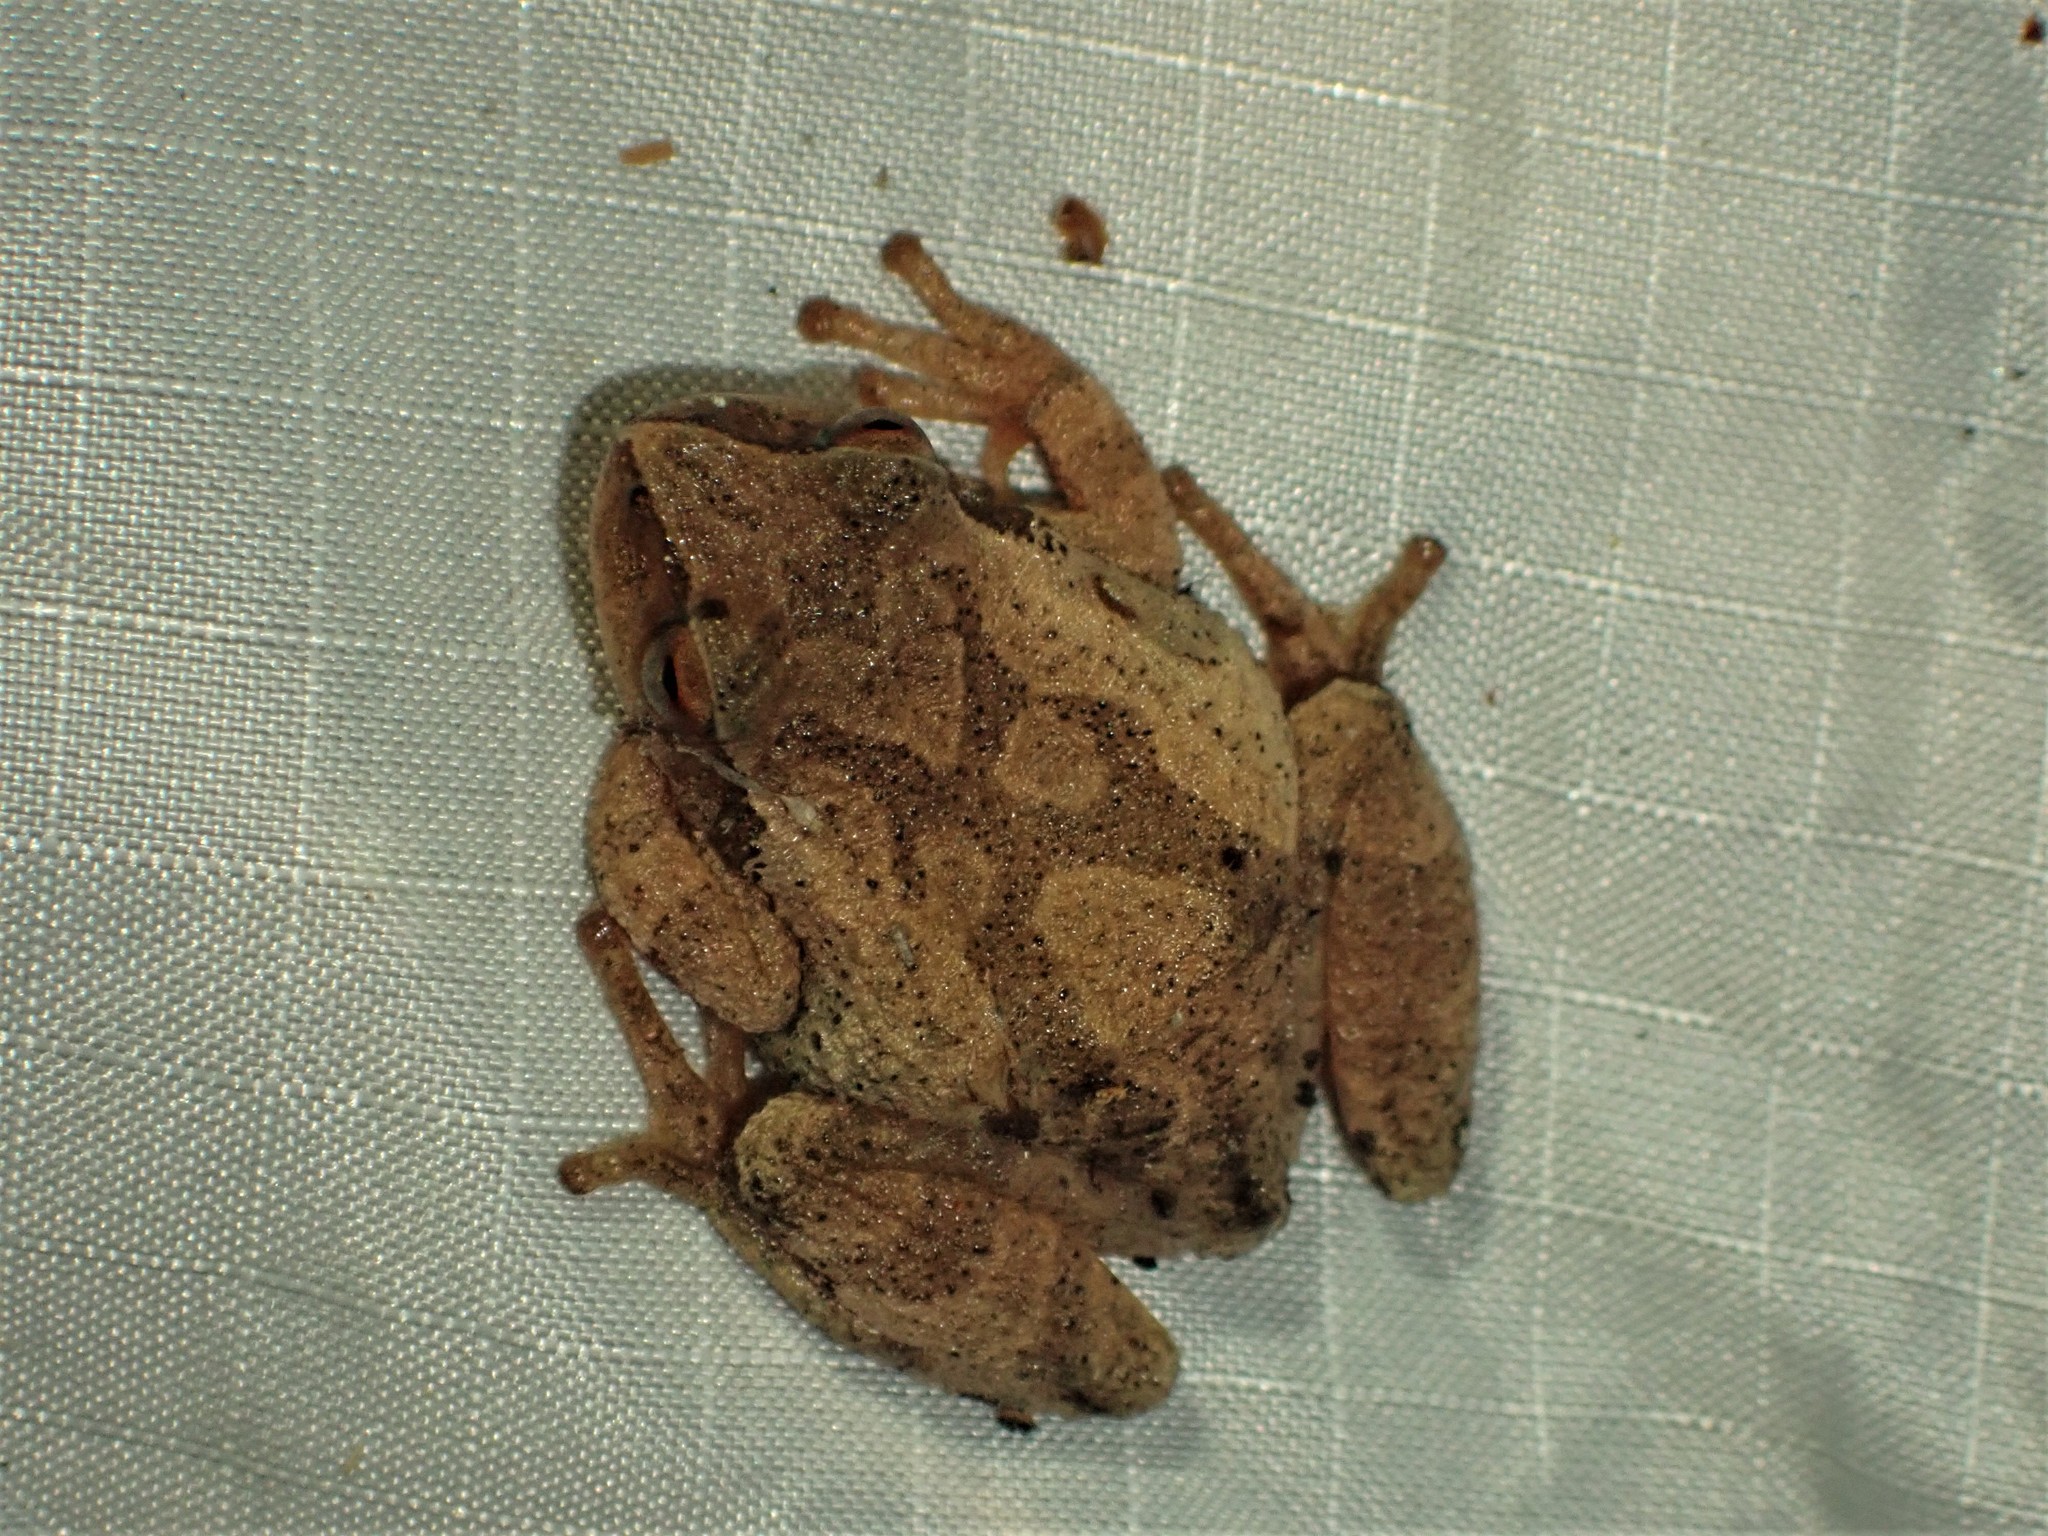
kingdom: Animalia
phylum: Chordata
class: Amphibia
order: Anura
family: Hylidae
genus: Pseudacris
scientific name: Pseudacris crucifer
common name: Spring peeper
